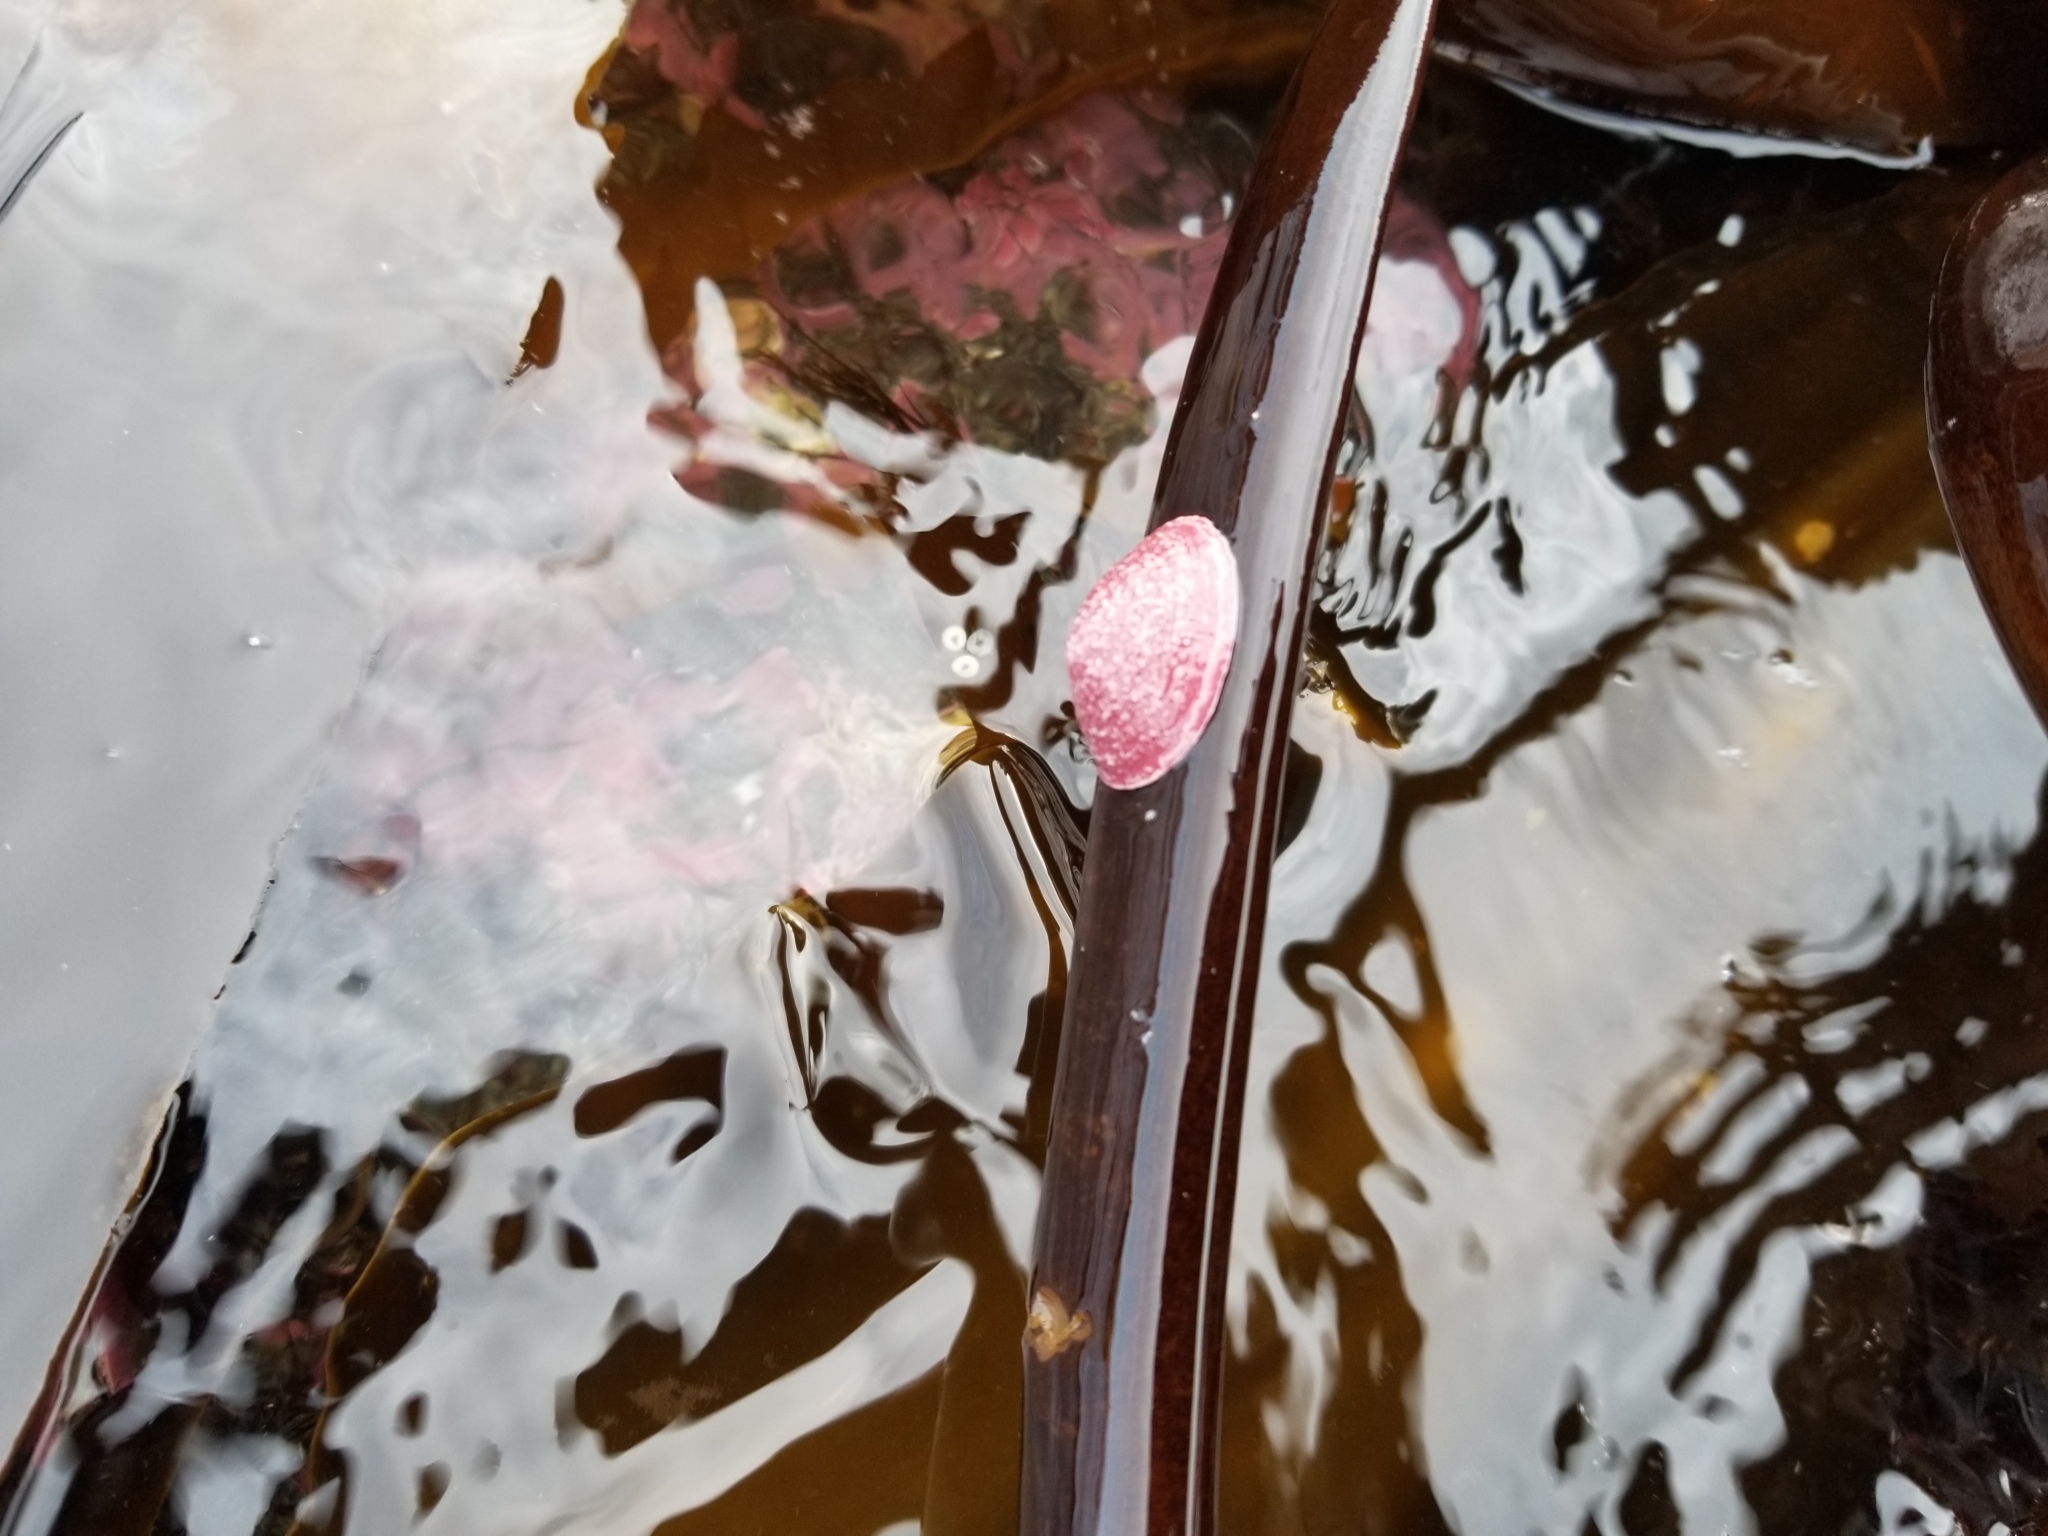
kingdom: Animalia
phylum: Mollusca
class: Gastropoda
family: Acmaeidae
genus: Acmaea
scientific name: Acmaea mitra
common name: Pacific white cap limpet
